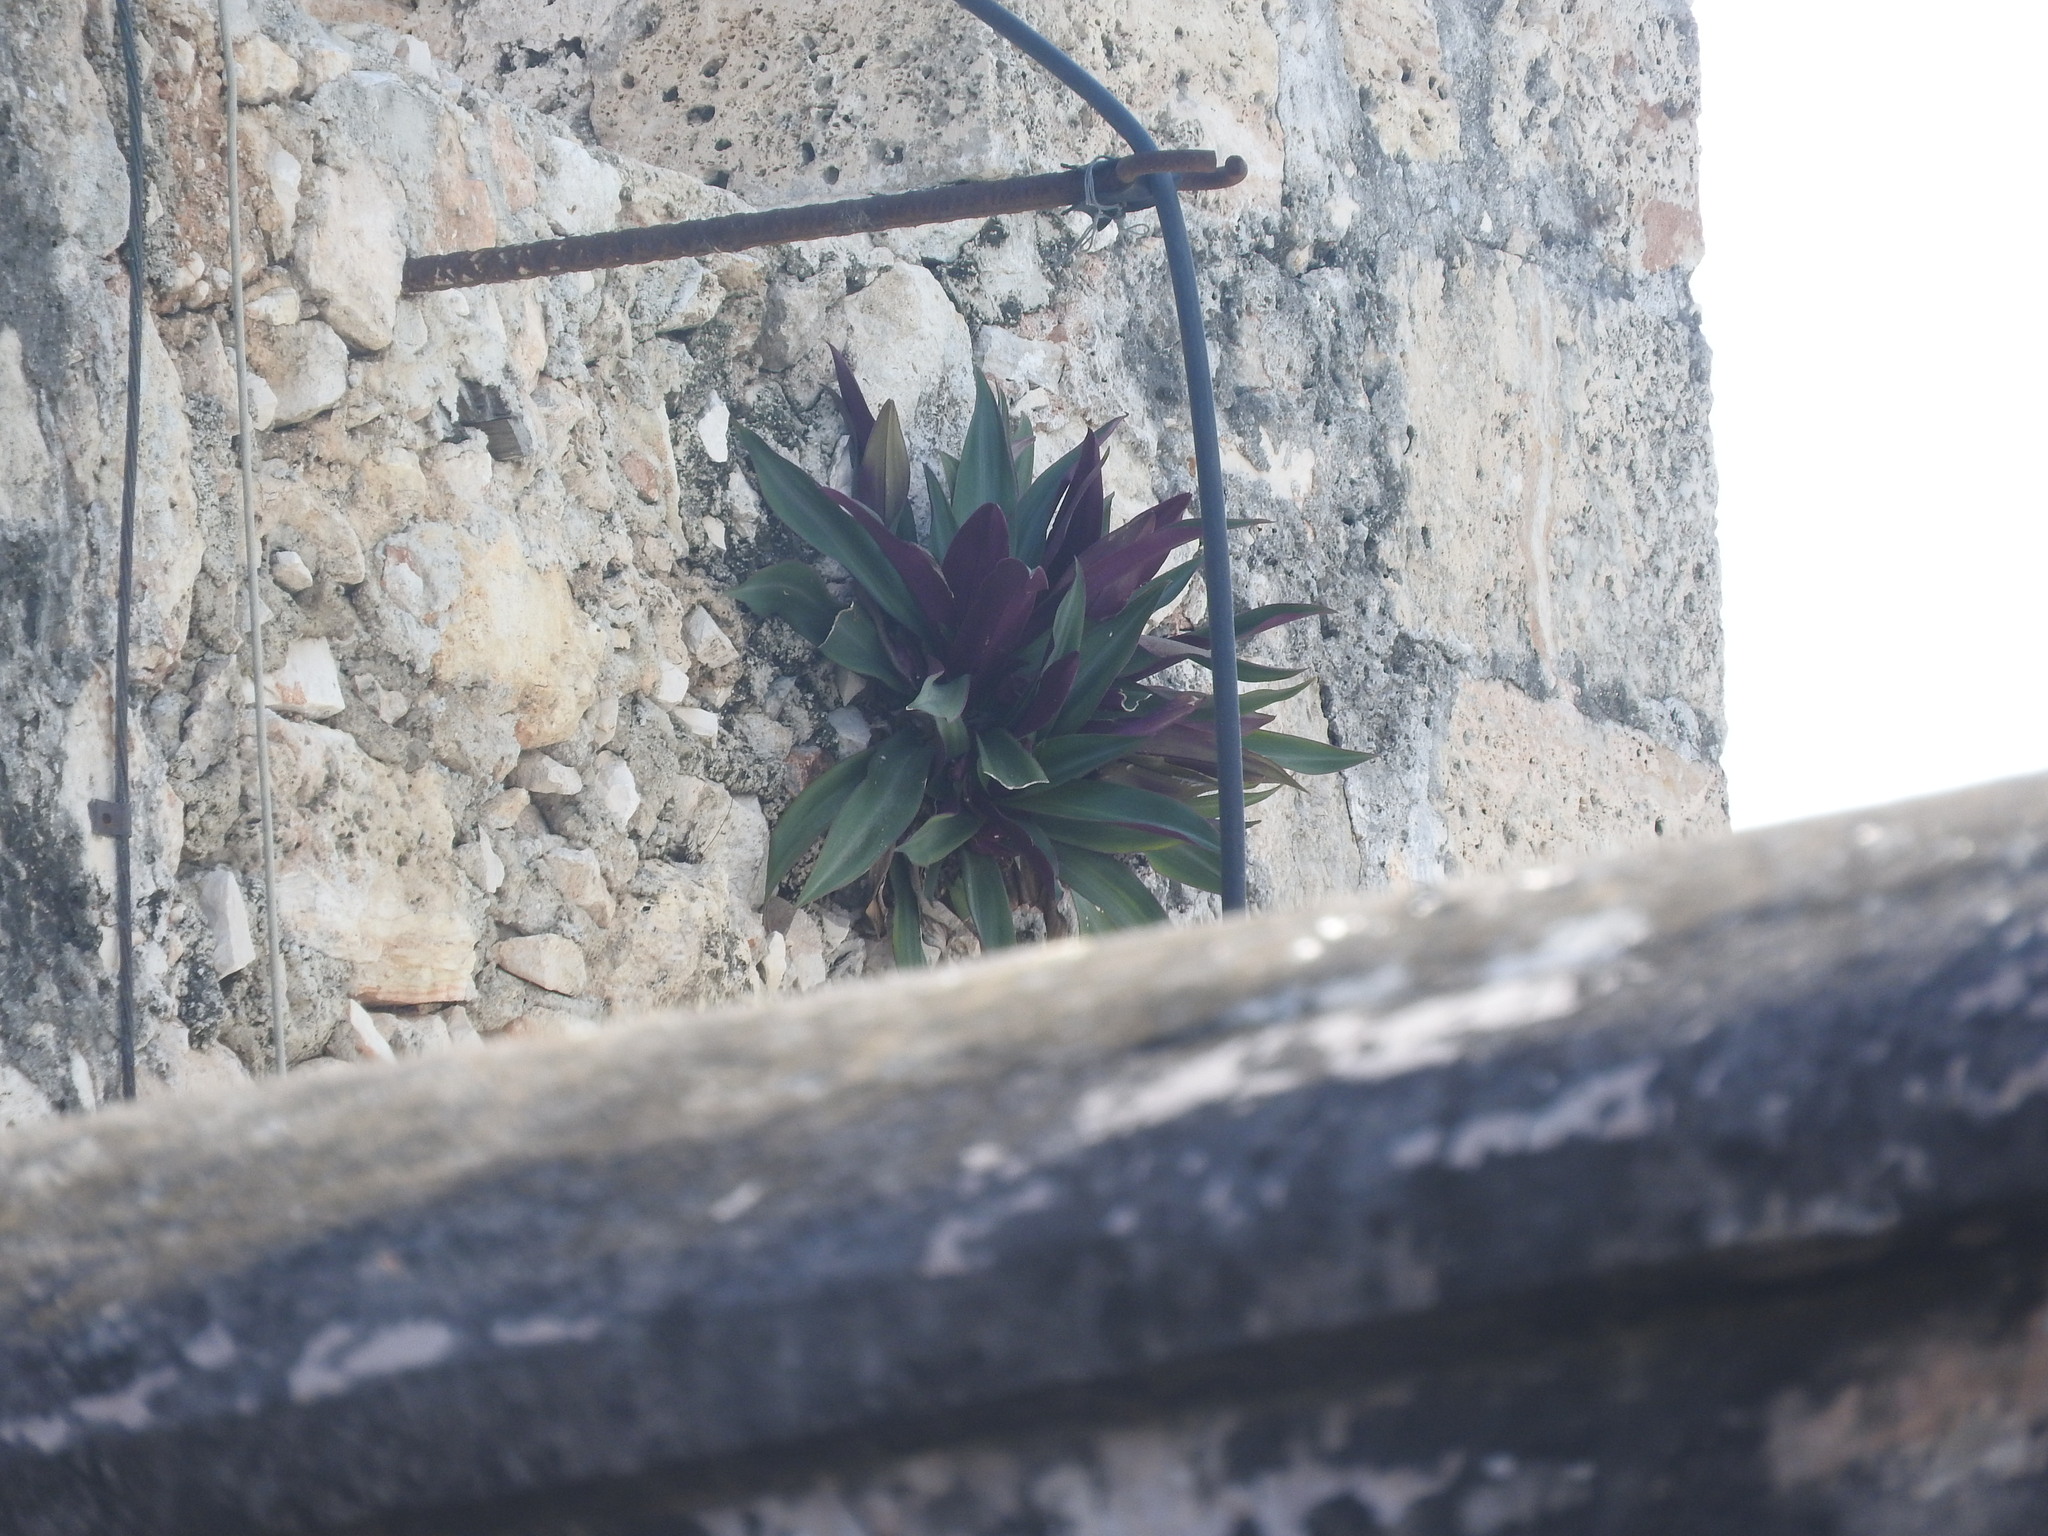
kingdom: Plantae
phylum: Tracheophyta
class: Liliopsida
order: Commelinales
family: Commelinaceae
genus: Tradescantia
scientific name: Tradescantia spathacea
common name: Boatlily
